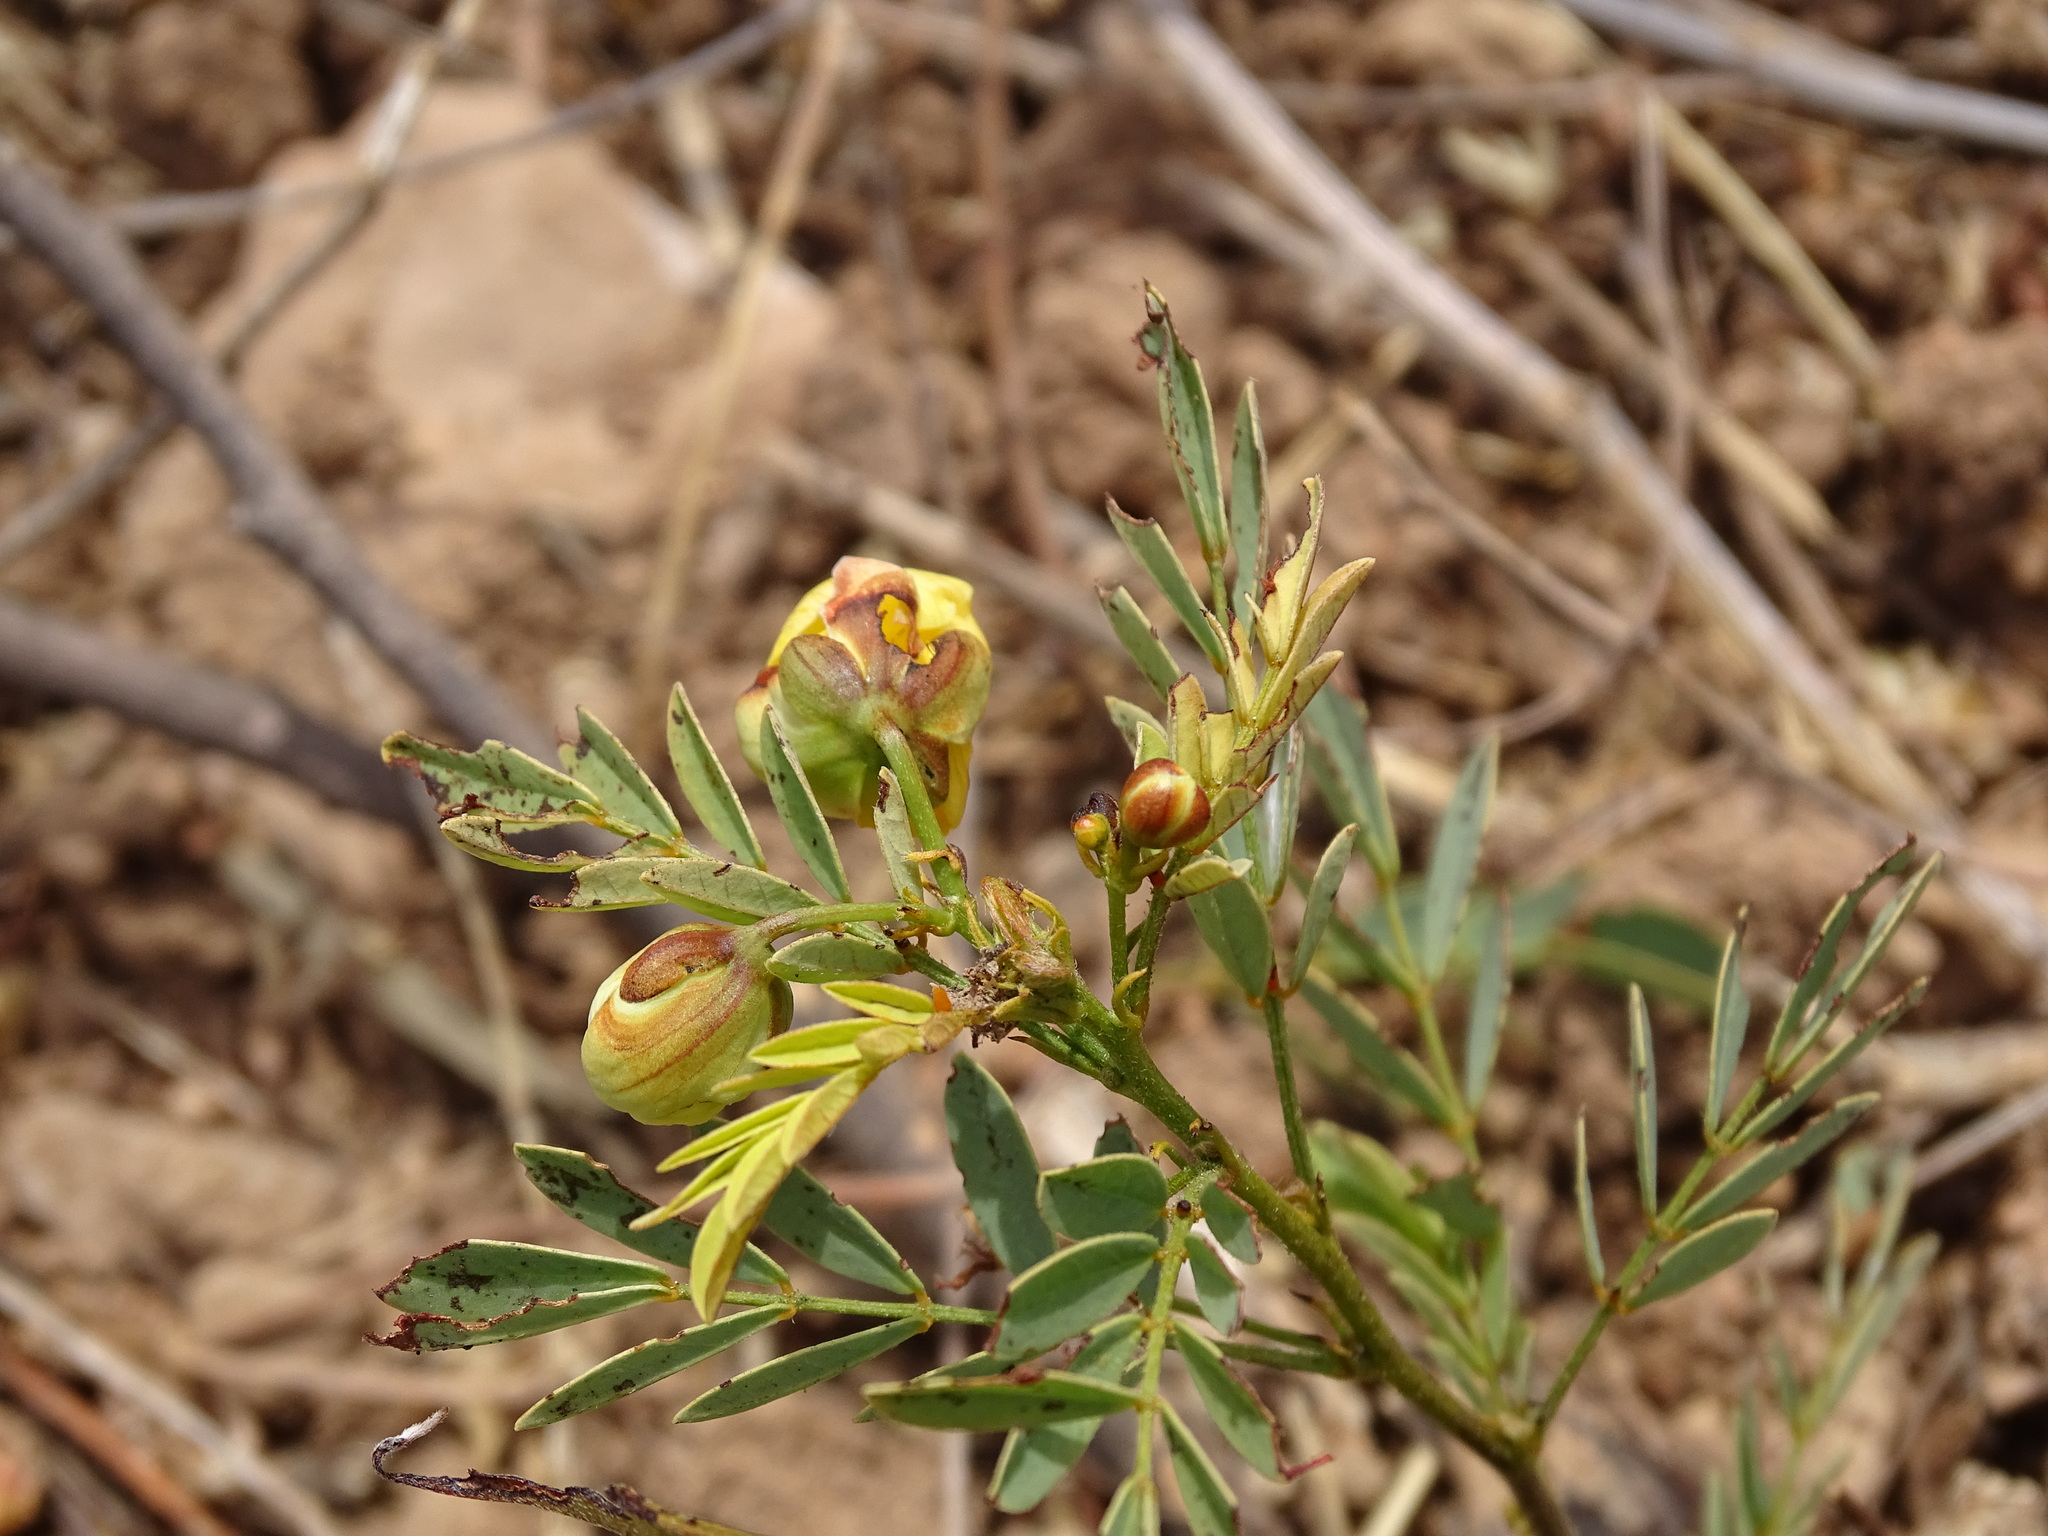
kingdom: Plantae
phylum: Tracheophyta
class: Magnoliopsida
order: Fabales
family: Fabaceae
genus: Senna
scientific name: Senna pallida
